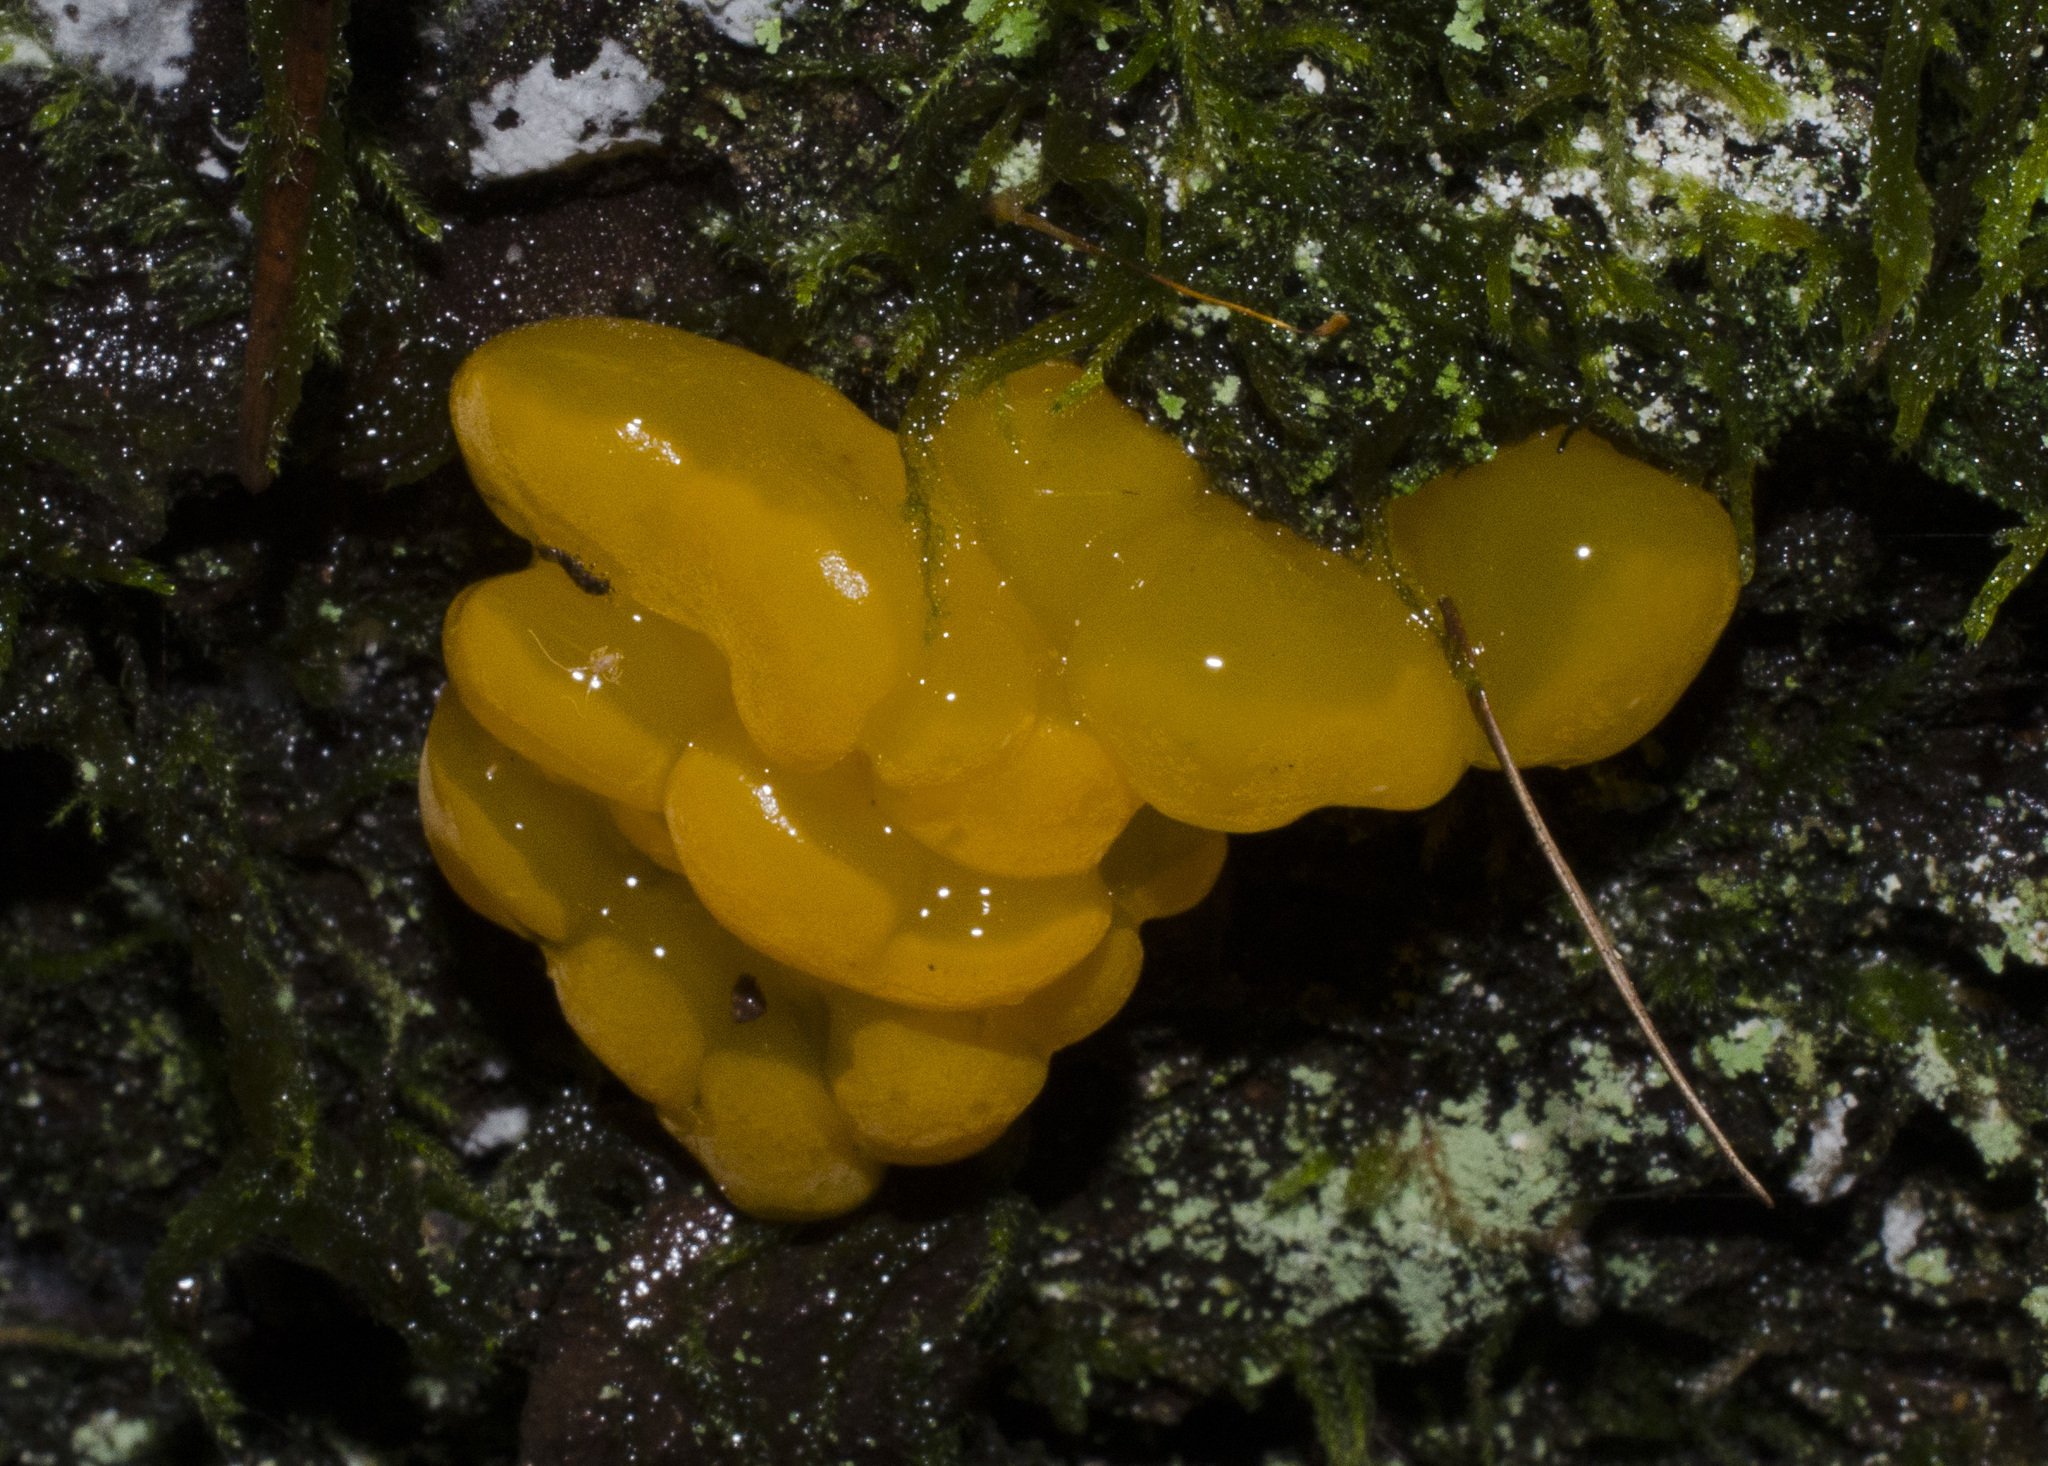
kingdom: Fungi
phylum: Basidiomycota
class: Dacrymycetes
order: Dacrymycetales
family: Dacrymycetaceae
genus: Dacrymyces
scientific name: Dacrymyces chrysospermus
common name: Orange jelly spot
